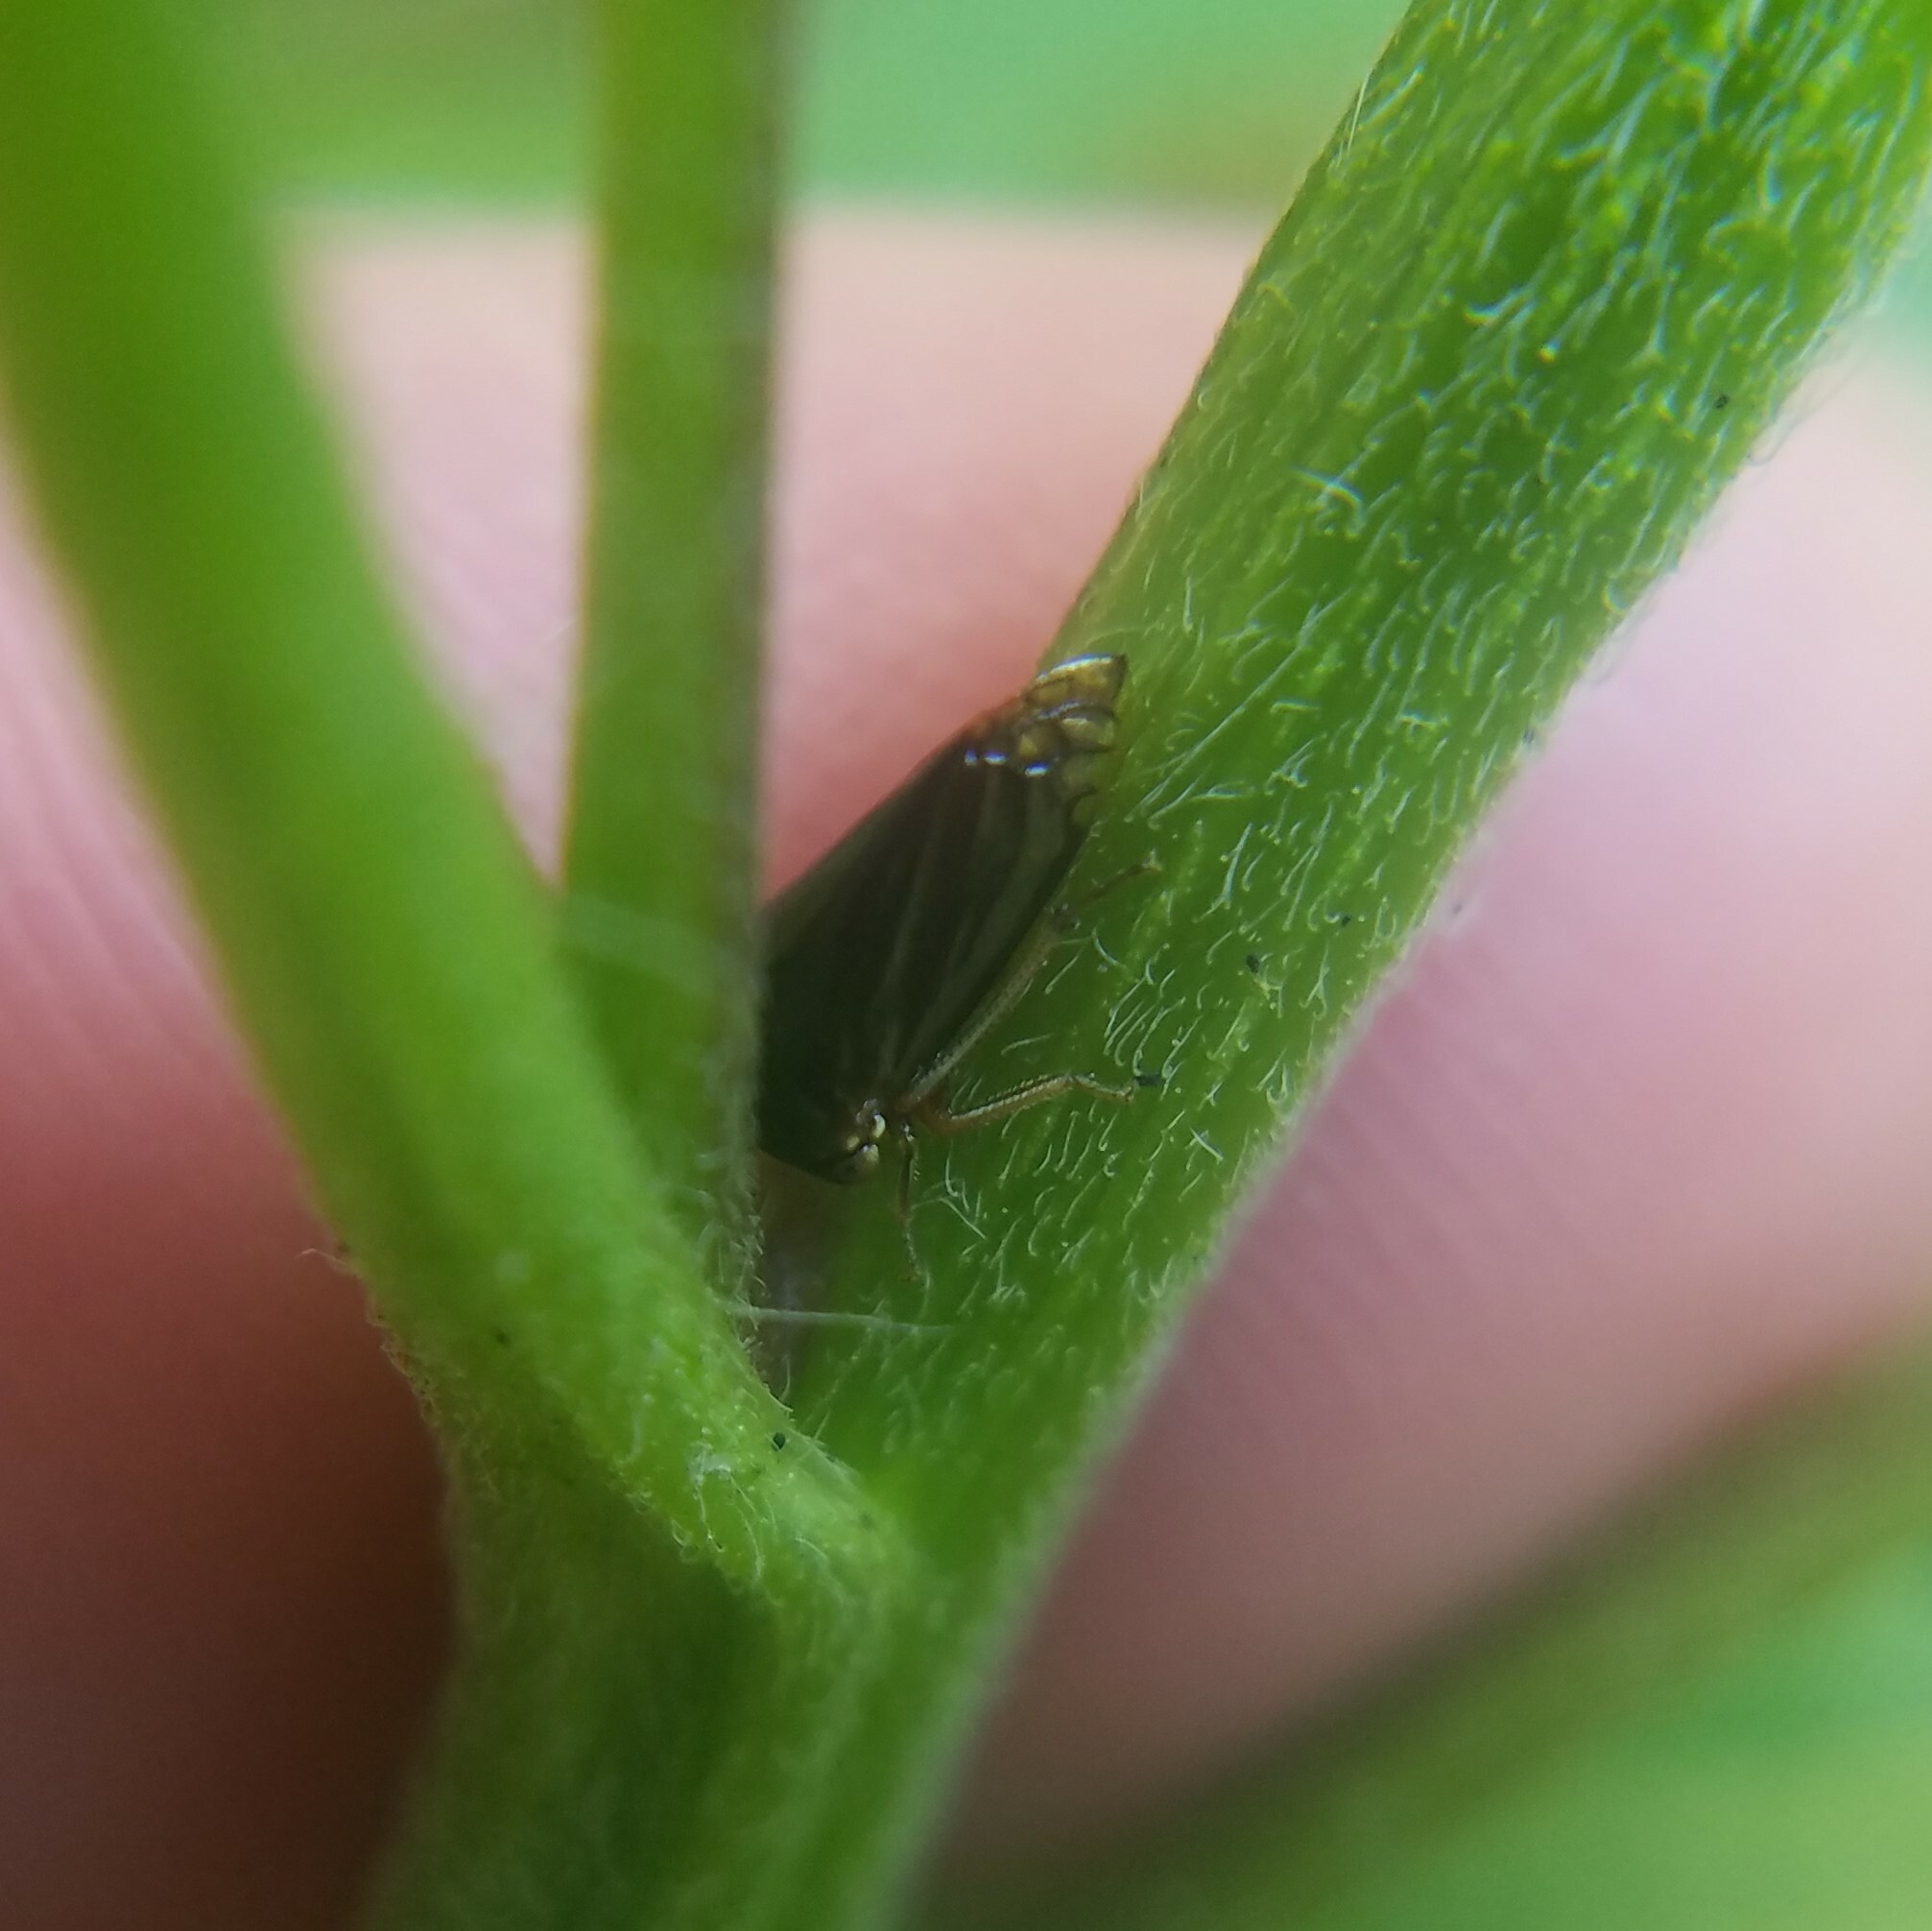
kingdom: Animalia
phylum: Arthropoda
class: Insecta
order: Hemiptera
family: Membracidae
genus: Acutalis
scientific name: Acutalis tartarea
